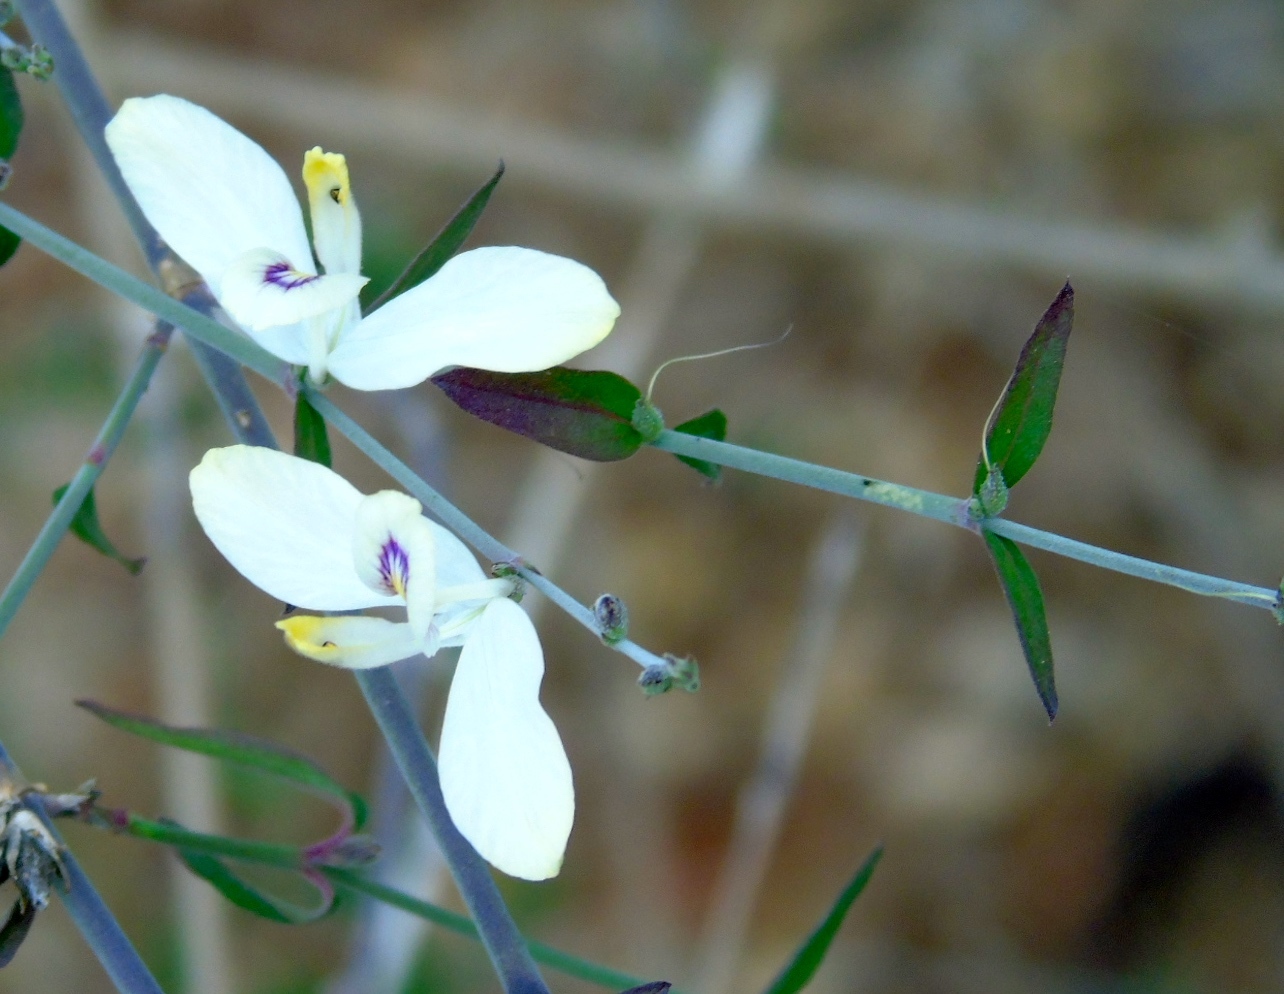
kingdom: Plantae
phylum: Tracheophyta
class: Magnoliopsida
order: Lamiales
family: Acanthaceae
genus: Carlowrightia
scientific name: Carlowrightia arizonica
